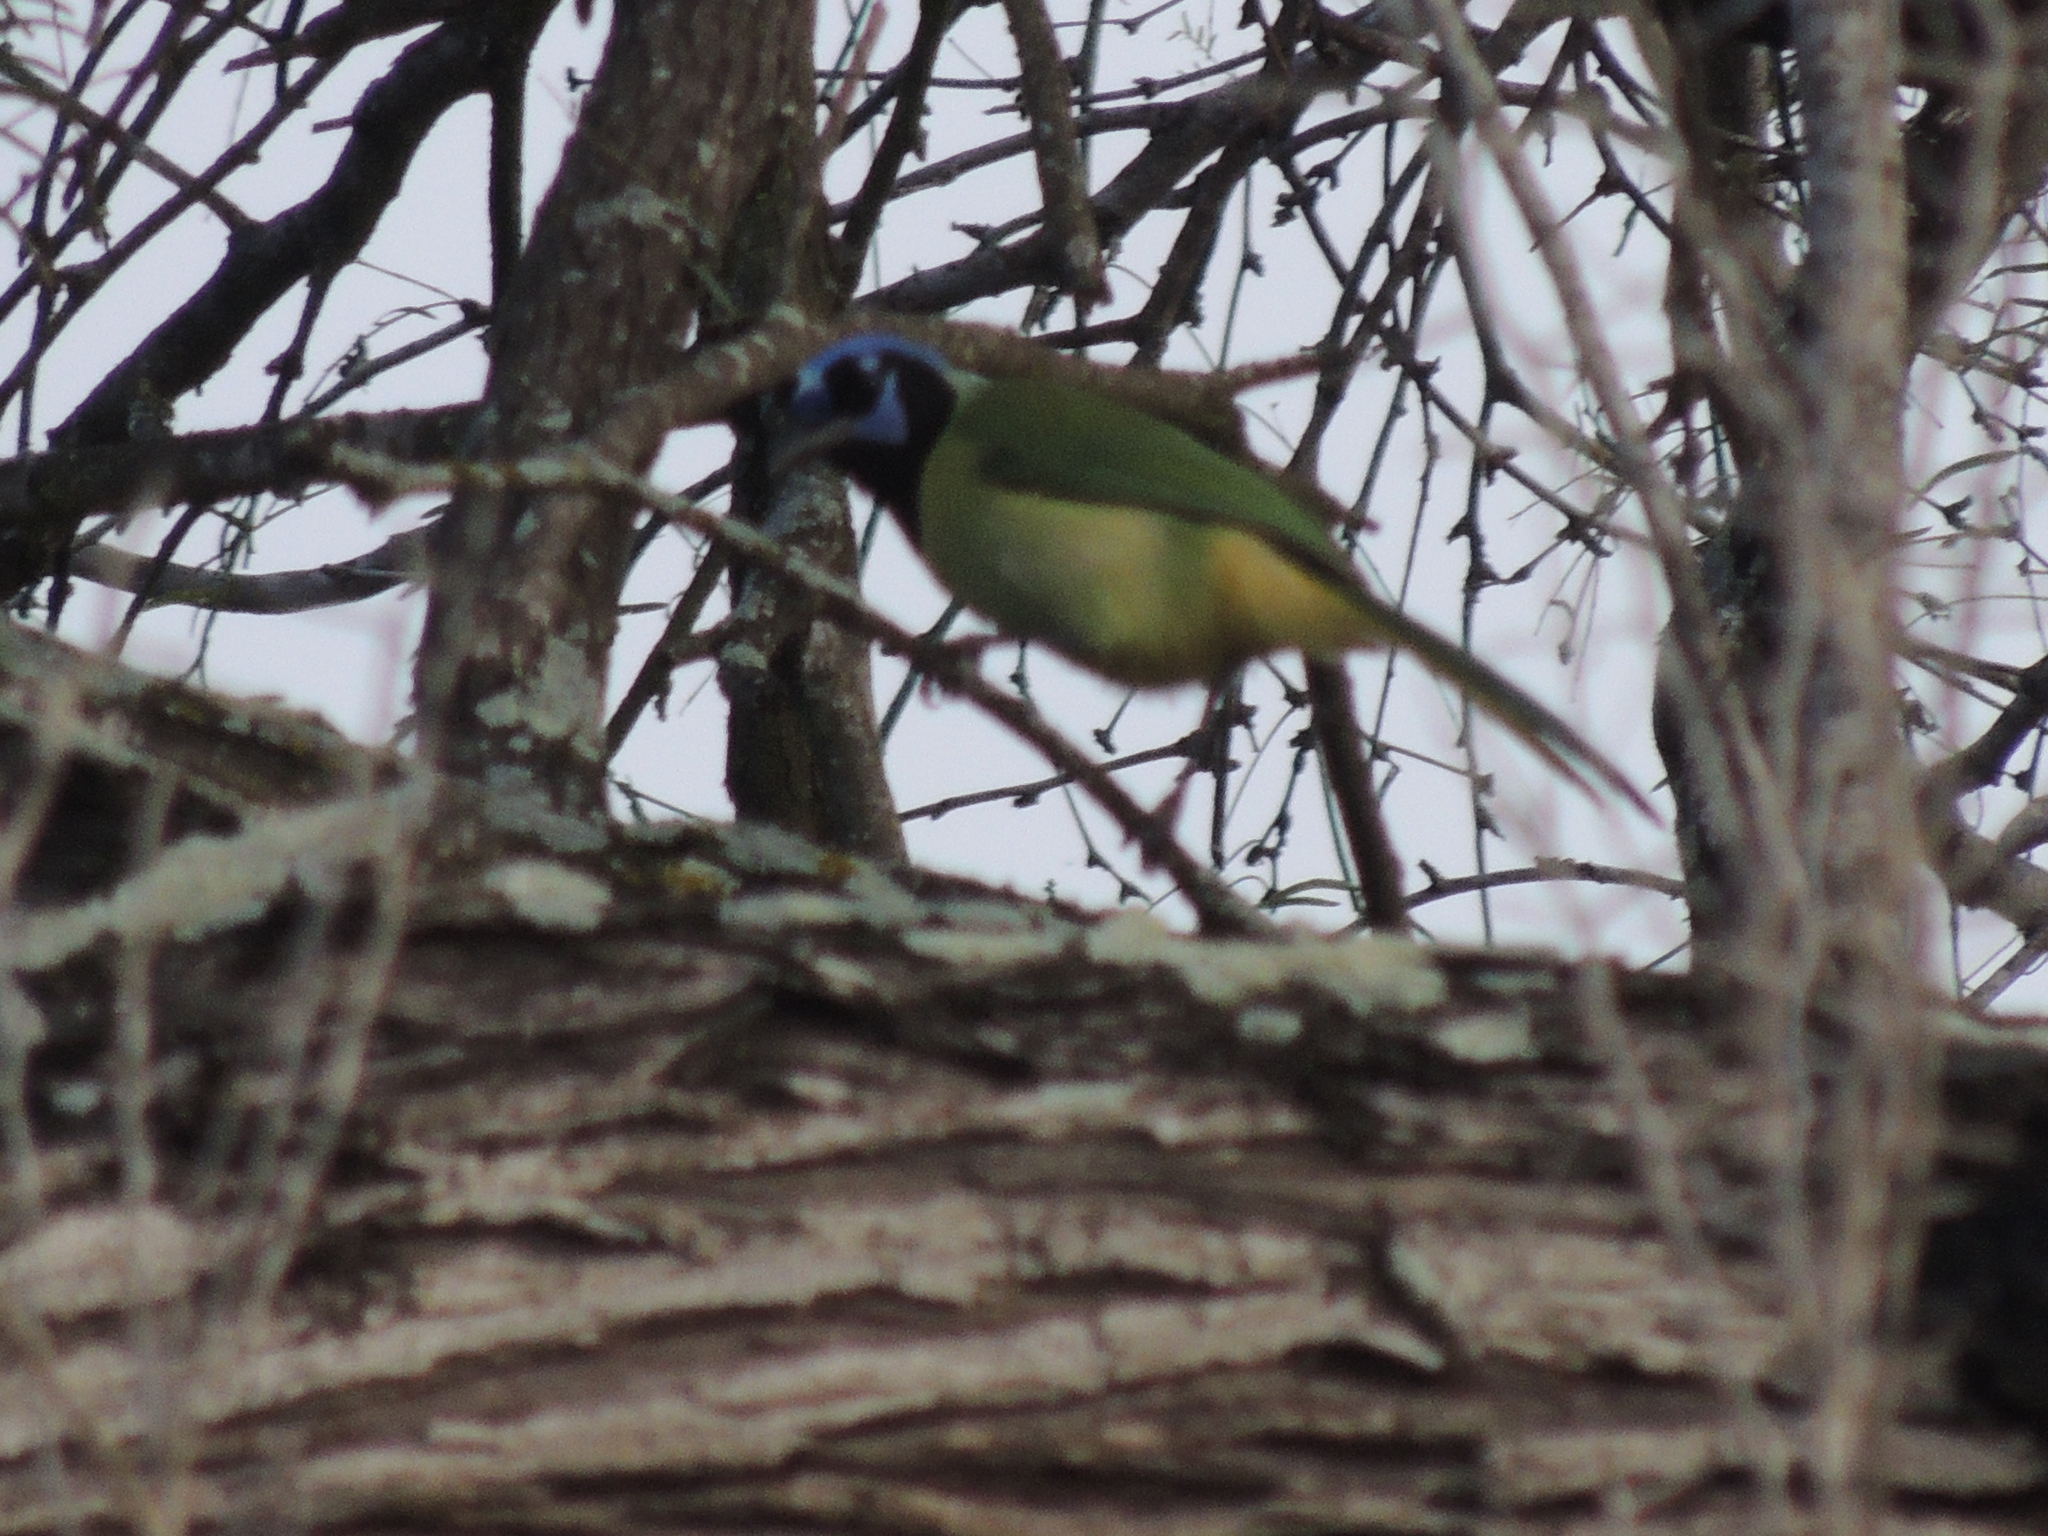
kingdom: Animalia
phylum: Chordata
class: Aves
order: Passeriformes
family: Corvidae
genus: Cyanocorax
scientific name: Cyanocorax yncas
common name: Green jay
